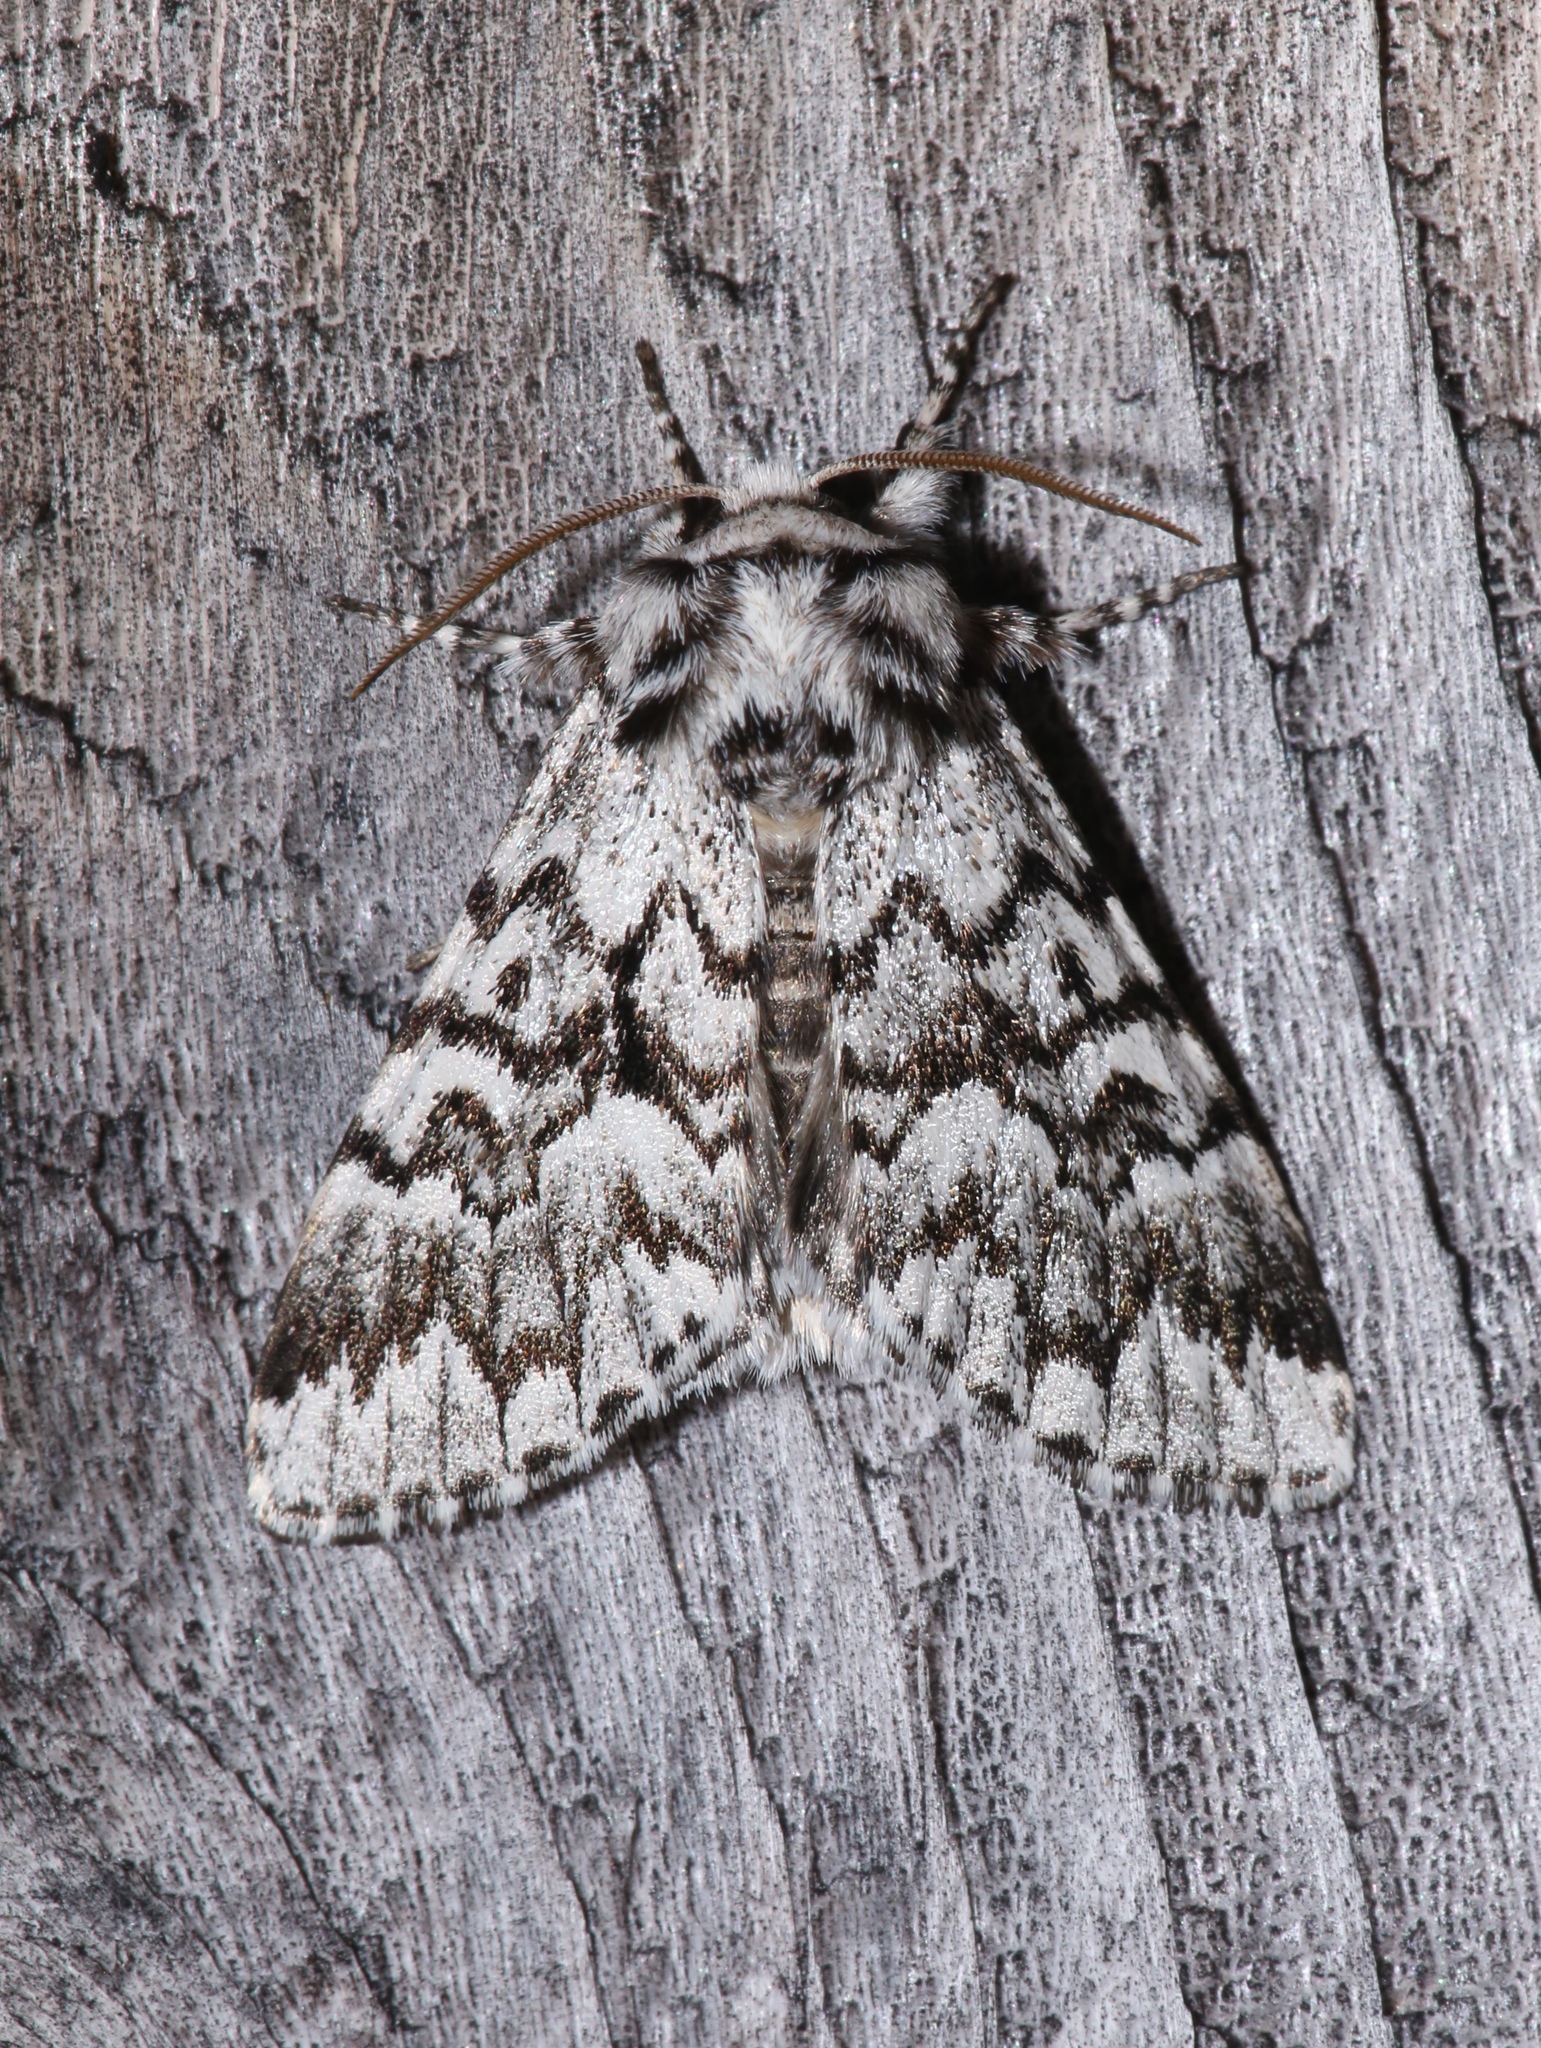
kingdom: Animalia
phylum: Arthropoda
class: Insecta
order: Lepidoptera
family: Noctuidae
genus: Panthea
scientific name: Panthea acronyctoides
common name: Black zigzag moth
